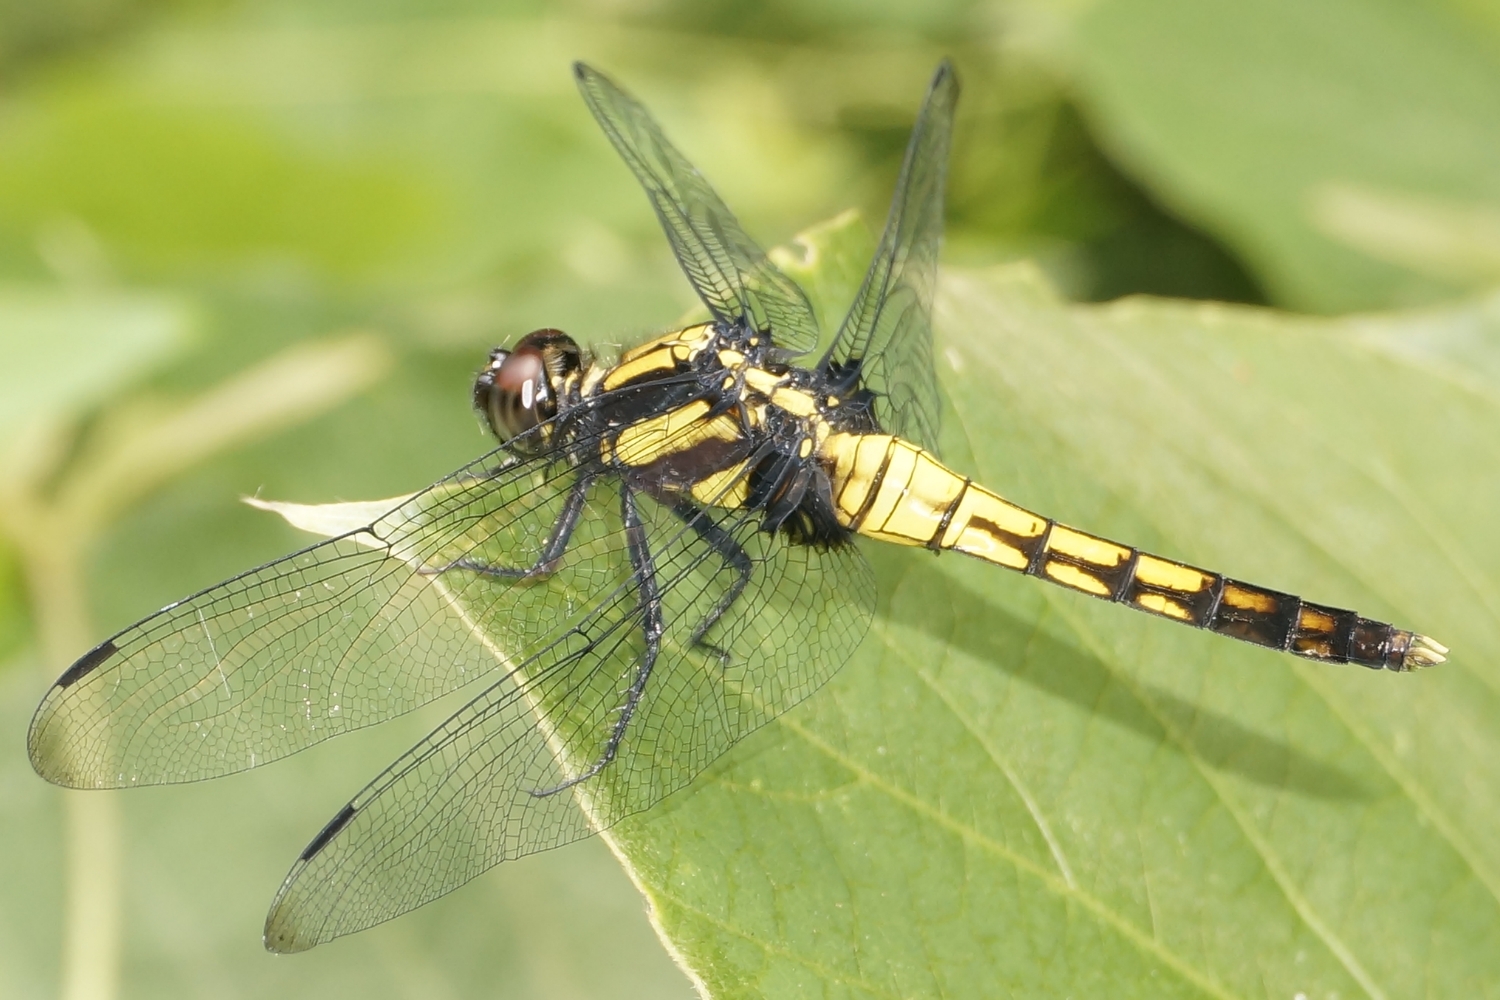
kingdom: Animalia
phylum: Arthropoda
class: Insecta
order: Odonata
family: Libellulidae
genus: Orthetrum
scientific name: Orthetrum melania
